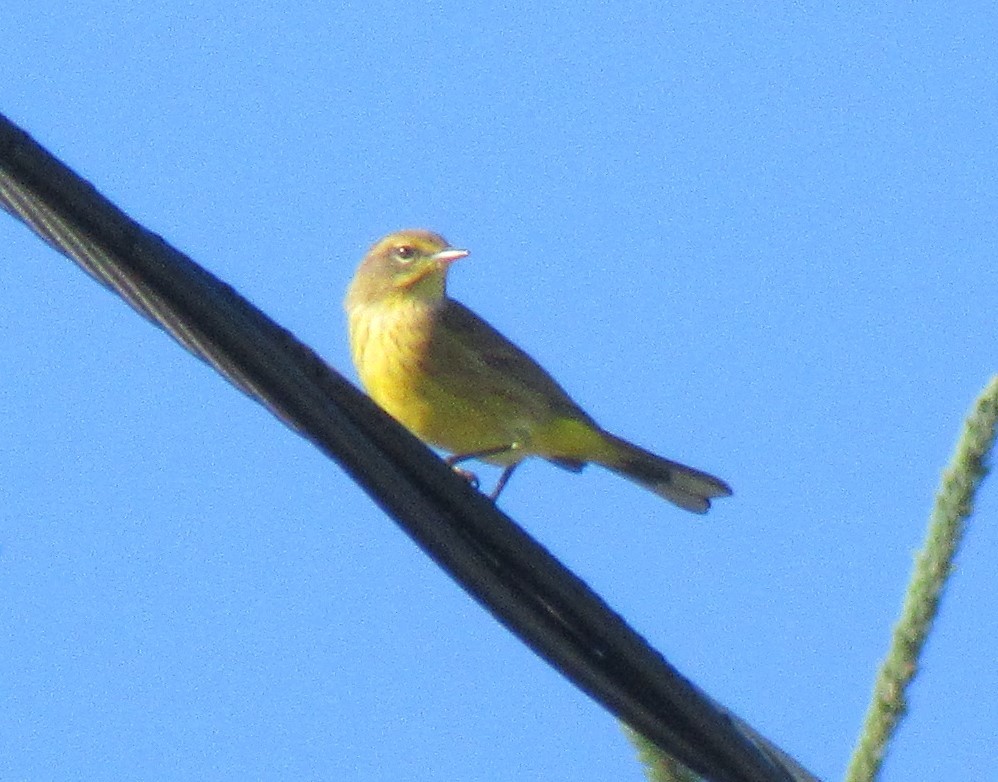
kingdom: Animalia
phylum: Chordata
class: Aves
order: Passeriformes
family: Parulidae
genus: Setophaga
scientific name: Setophaga palmarum
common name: Palm warbler
